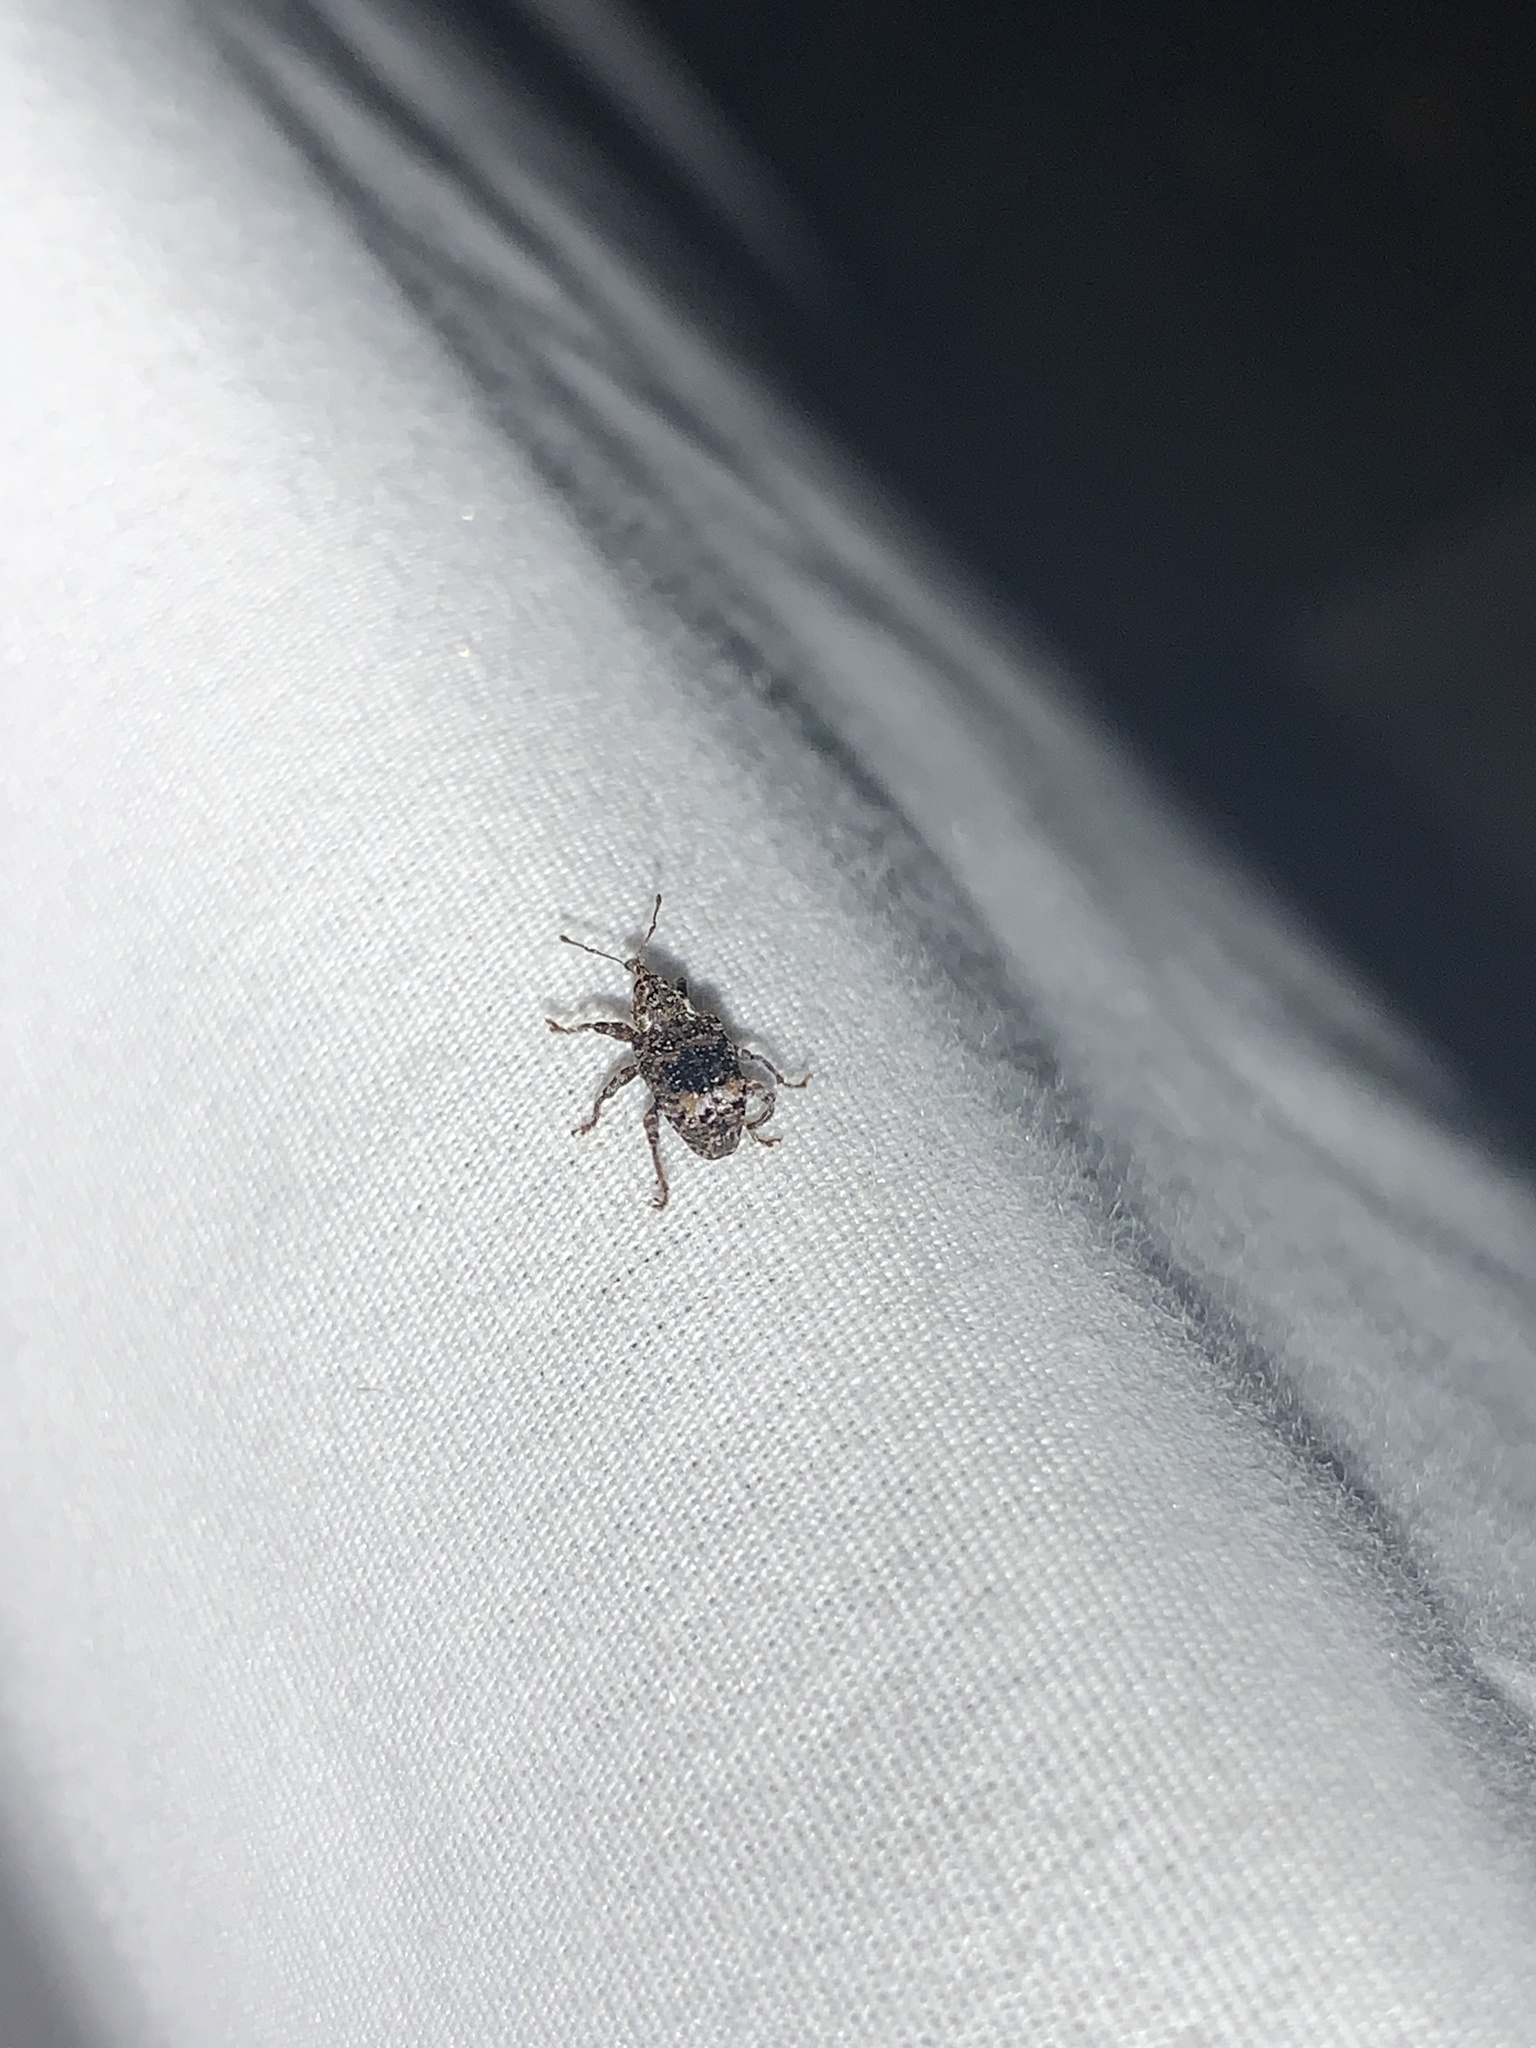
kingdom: Animalia
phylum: Arthropoda
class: Insecta
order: Coleoptera
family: Curculionidae
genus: Conotrachelus
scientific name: Conotrachelus nenuphar
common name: Plum curculio
